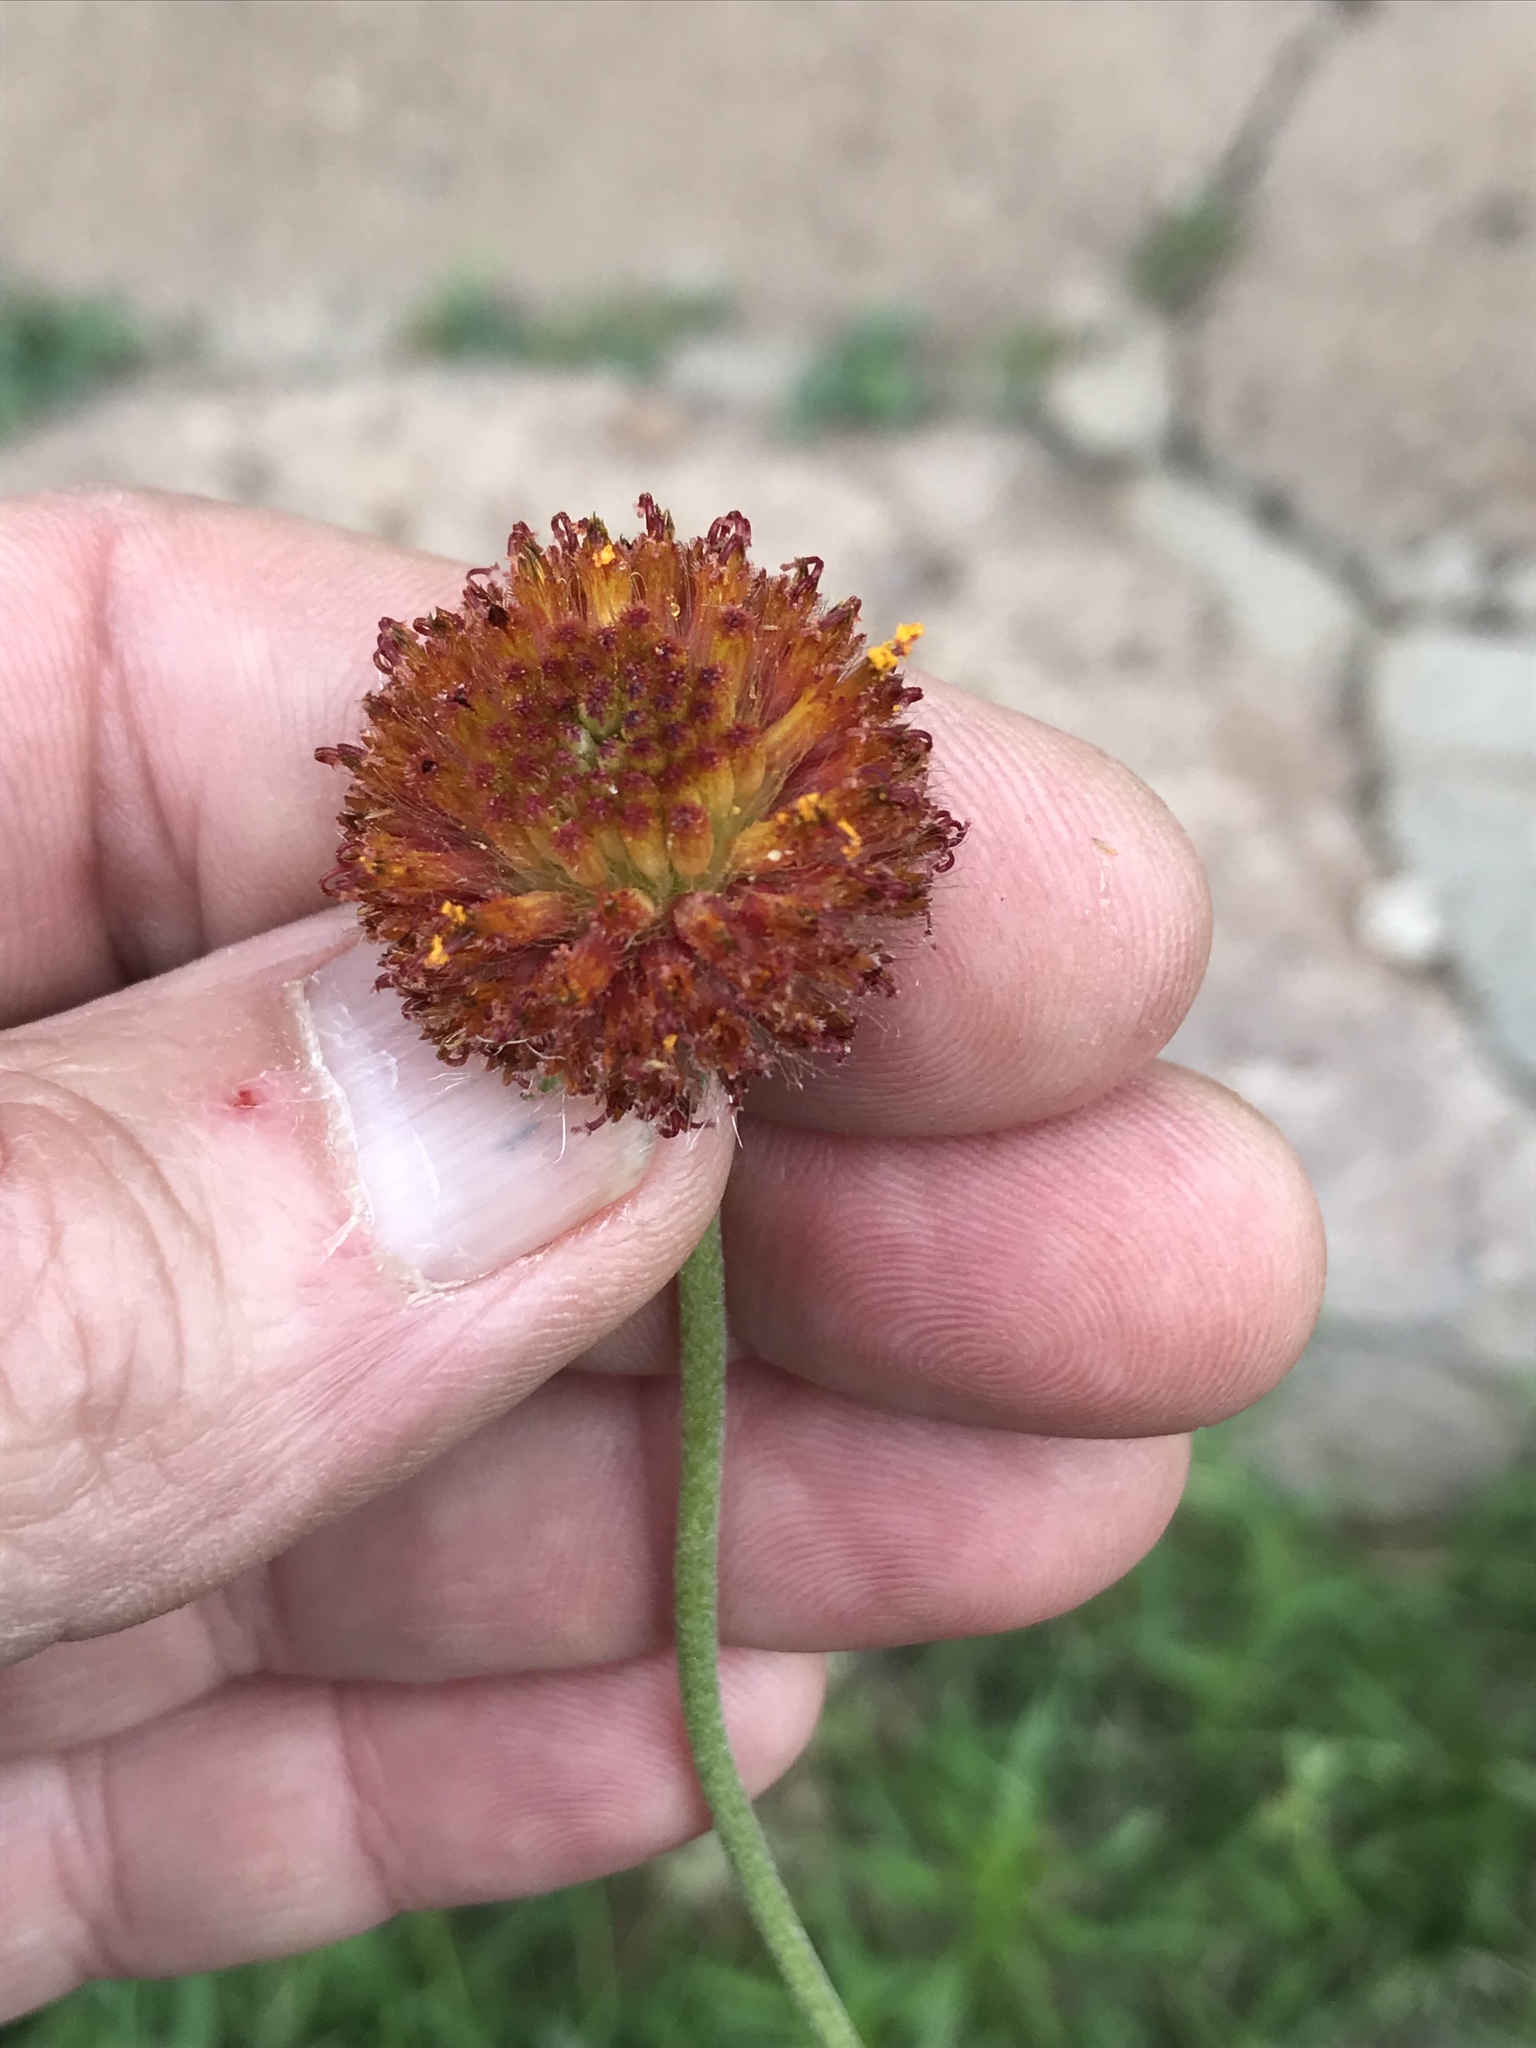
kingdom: Plantae
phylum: Tracheophyta
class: Magnoliopsida
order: Asterales
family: Asteraceae
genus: Gaillardia
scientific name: Gaillardia suavis
